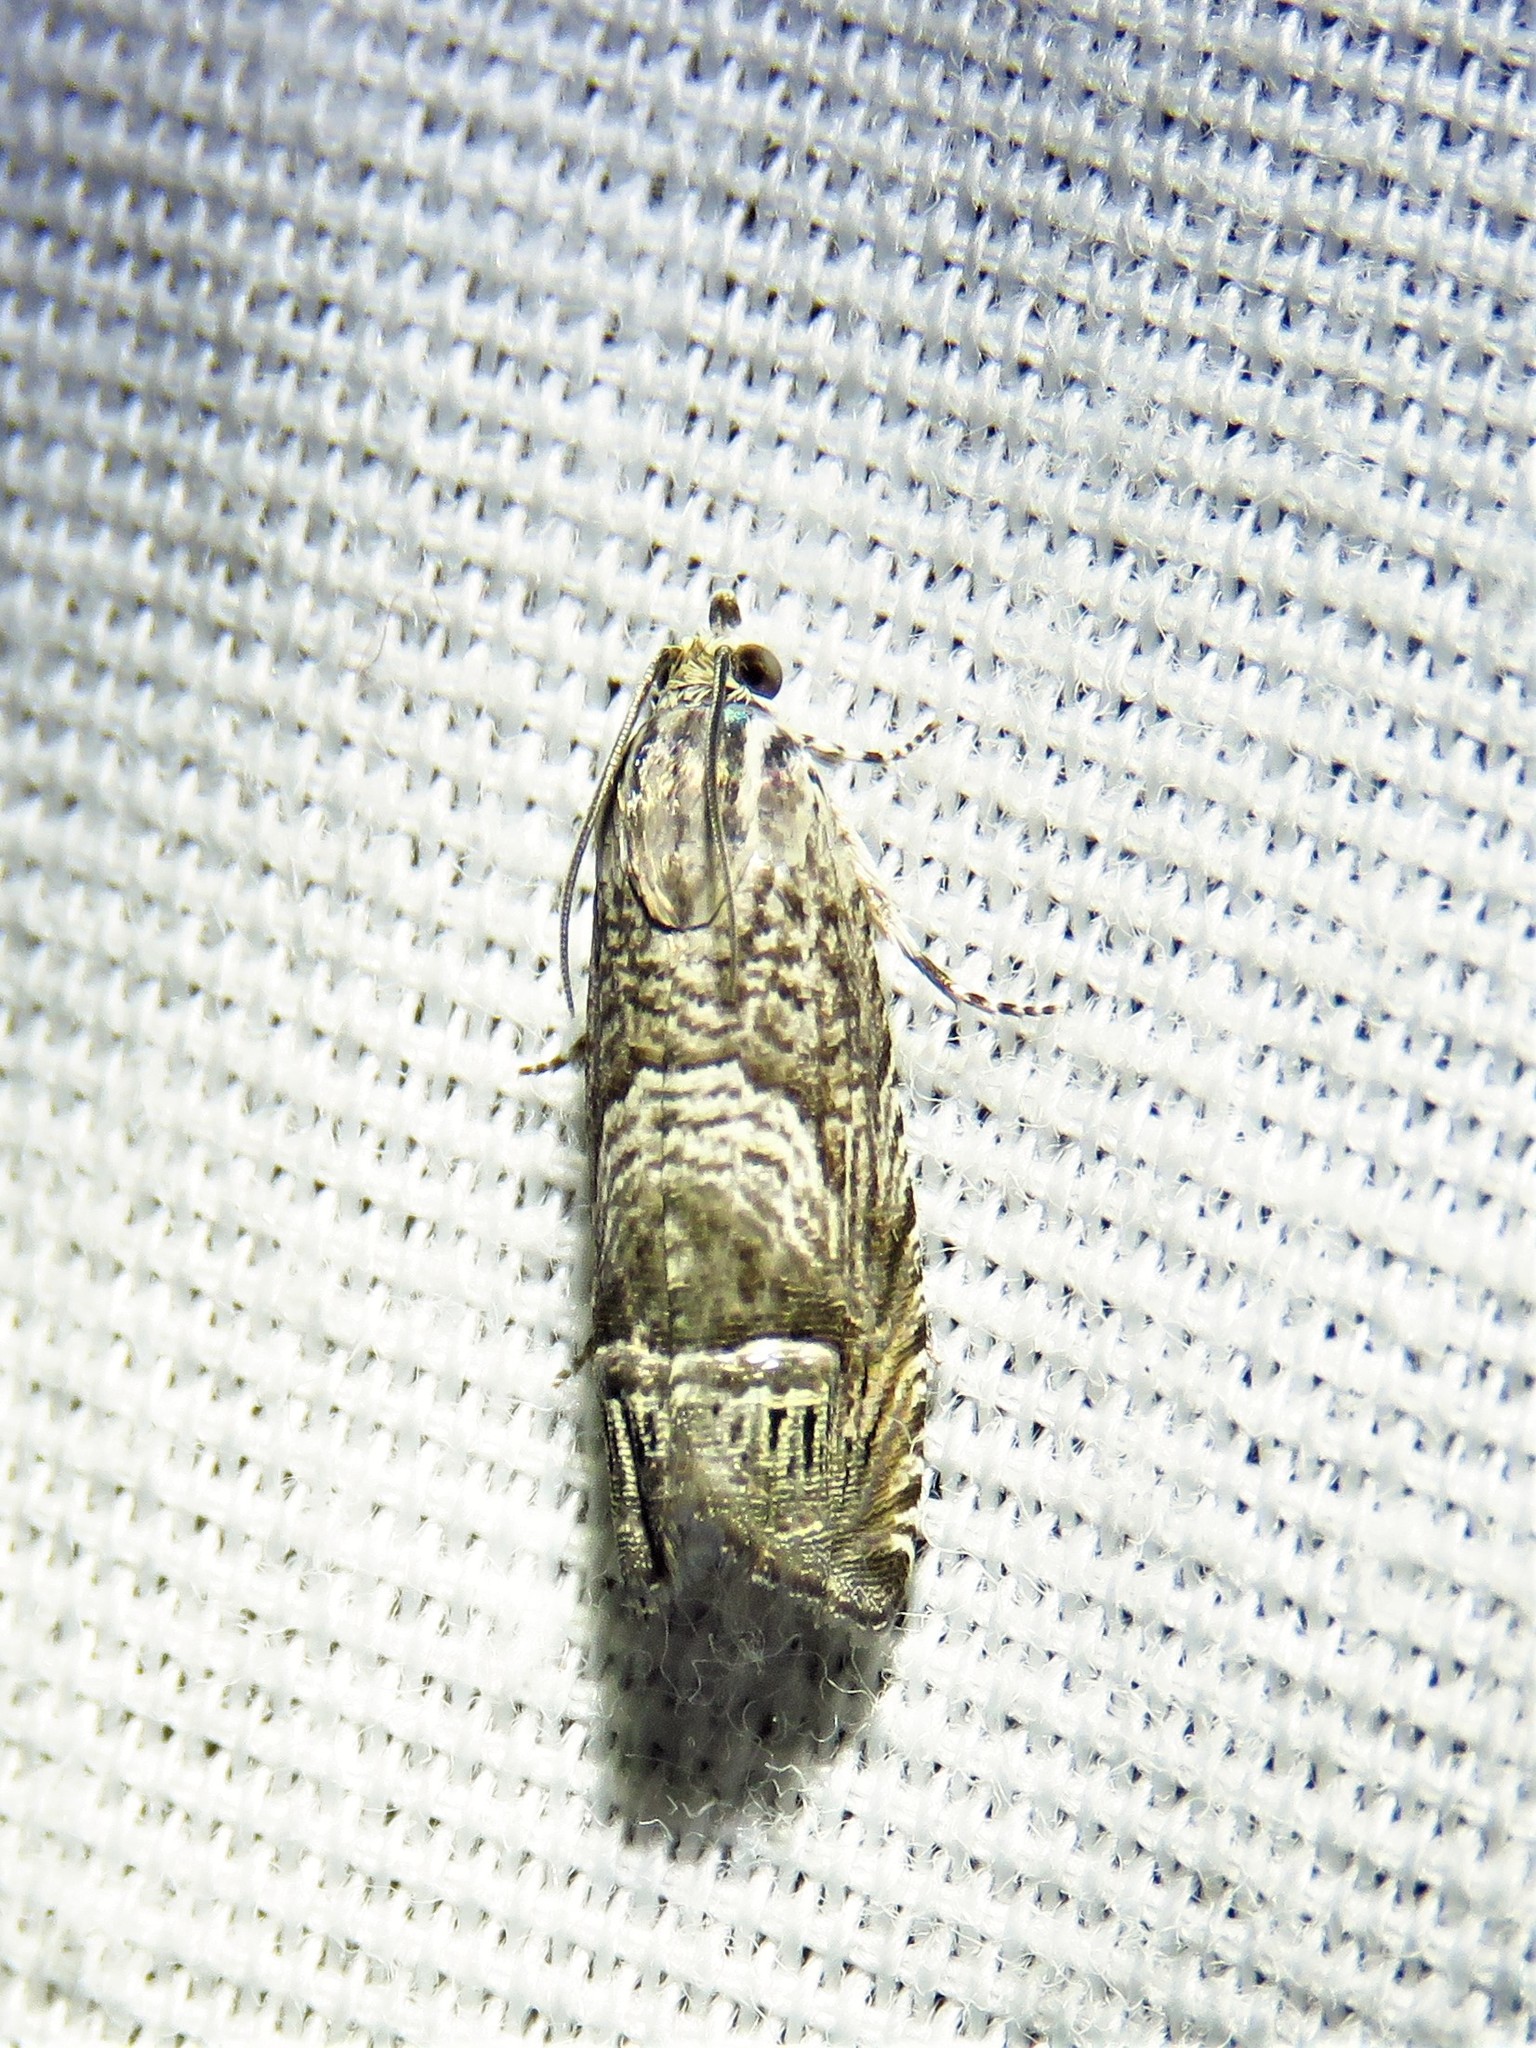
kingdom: Animalia
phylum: Arthropoda
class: Insecta
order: Lepidoptera
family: Tortricidae
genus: Ofatulena
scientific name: Ofatulena duodecemstriata
